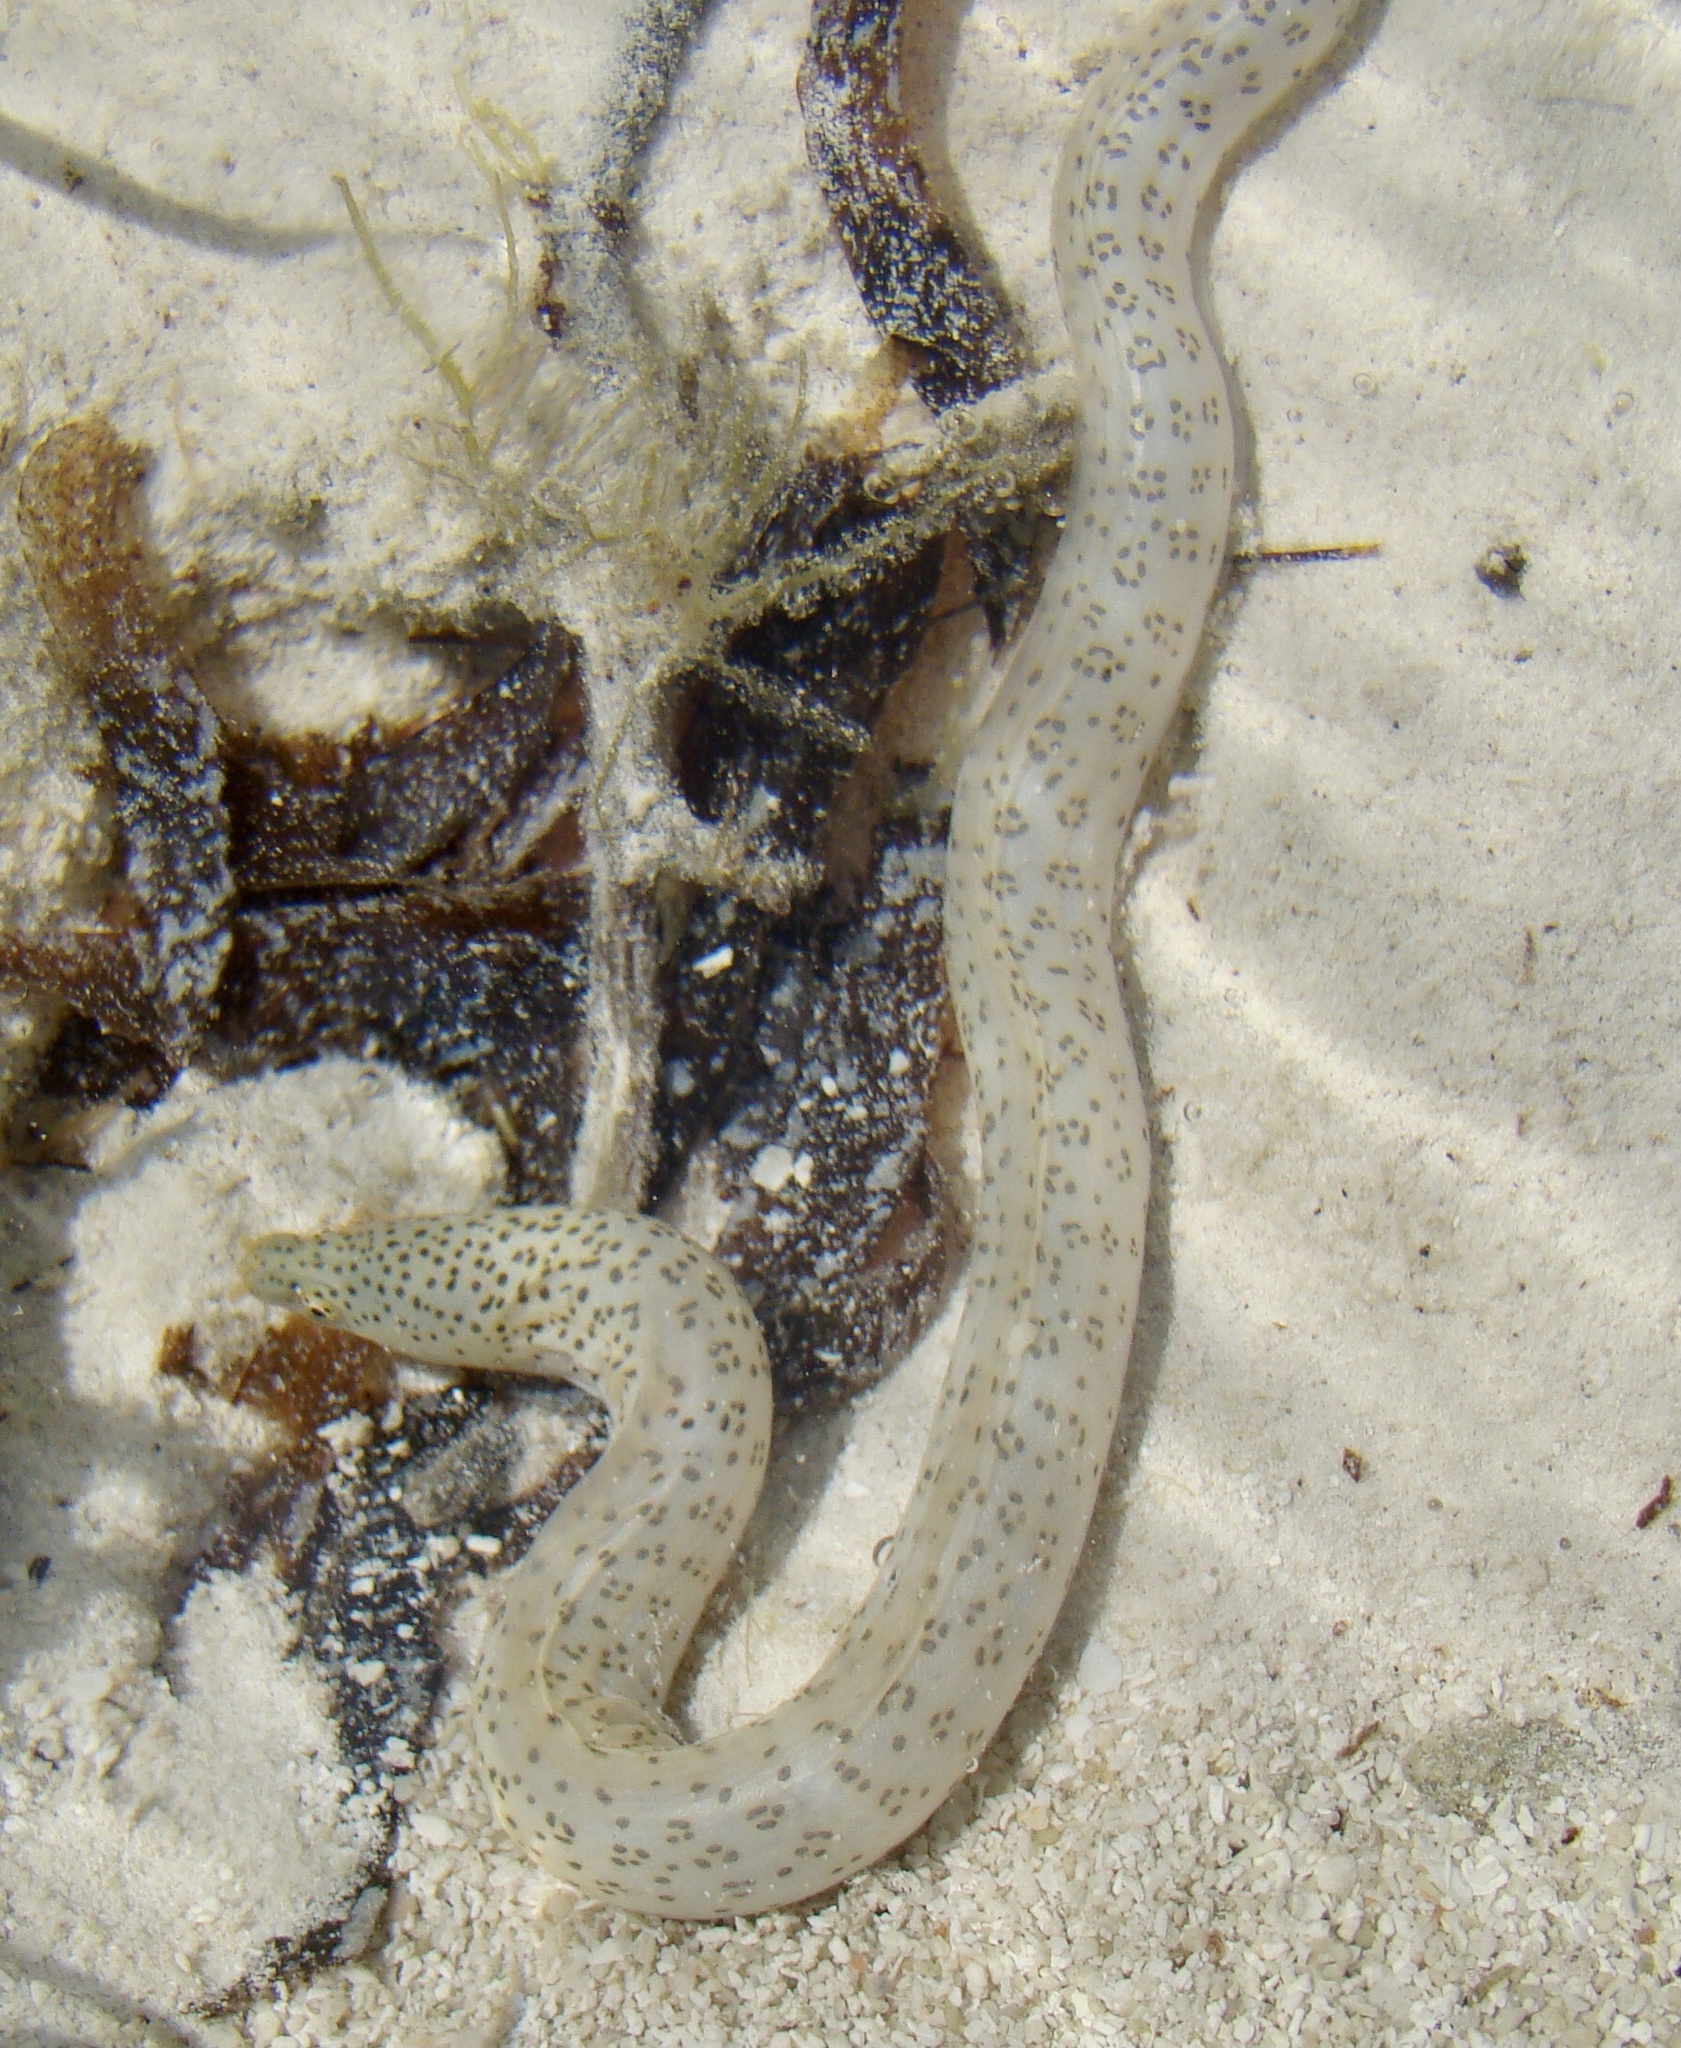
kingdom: Animalia
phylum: Chordata
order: Anguilliformes
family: Muraenidae
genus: Gymnothorax
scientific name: Gymnothorax pictus
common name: Peppered moray
